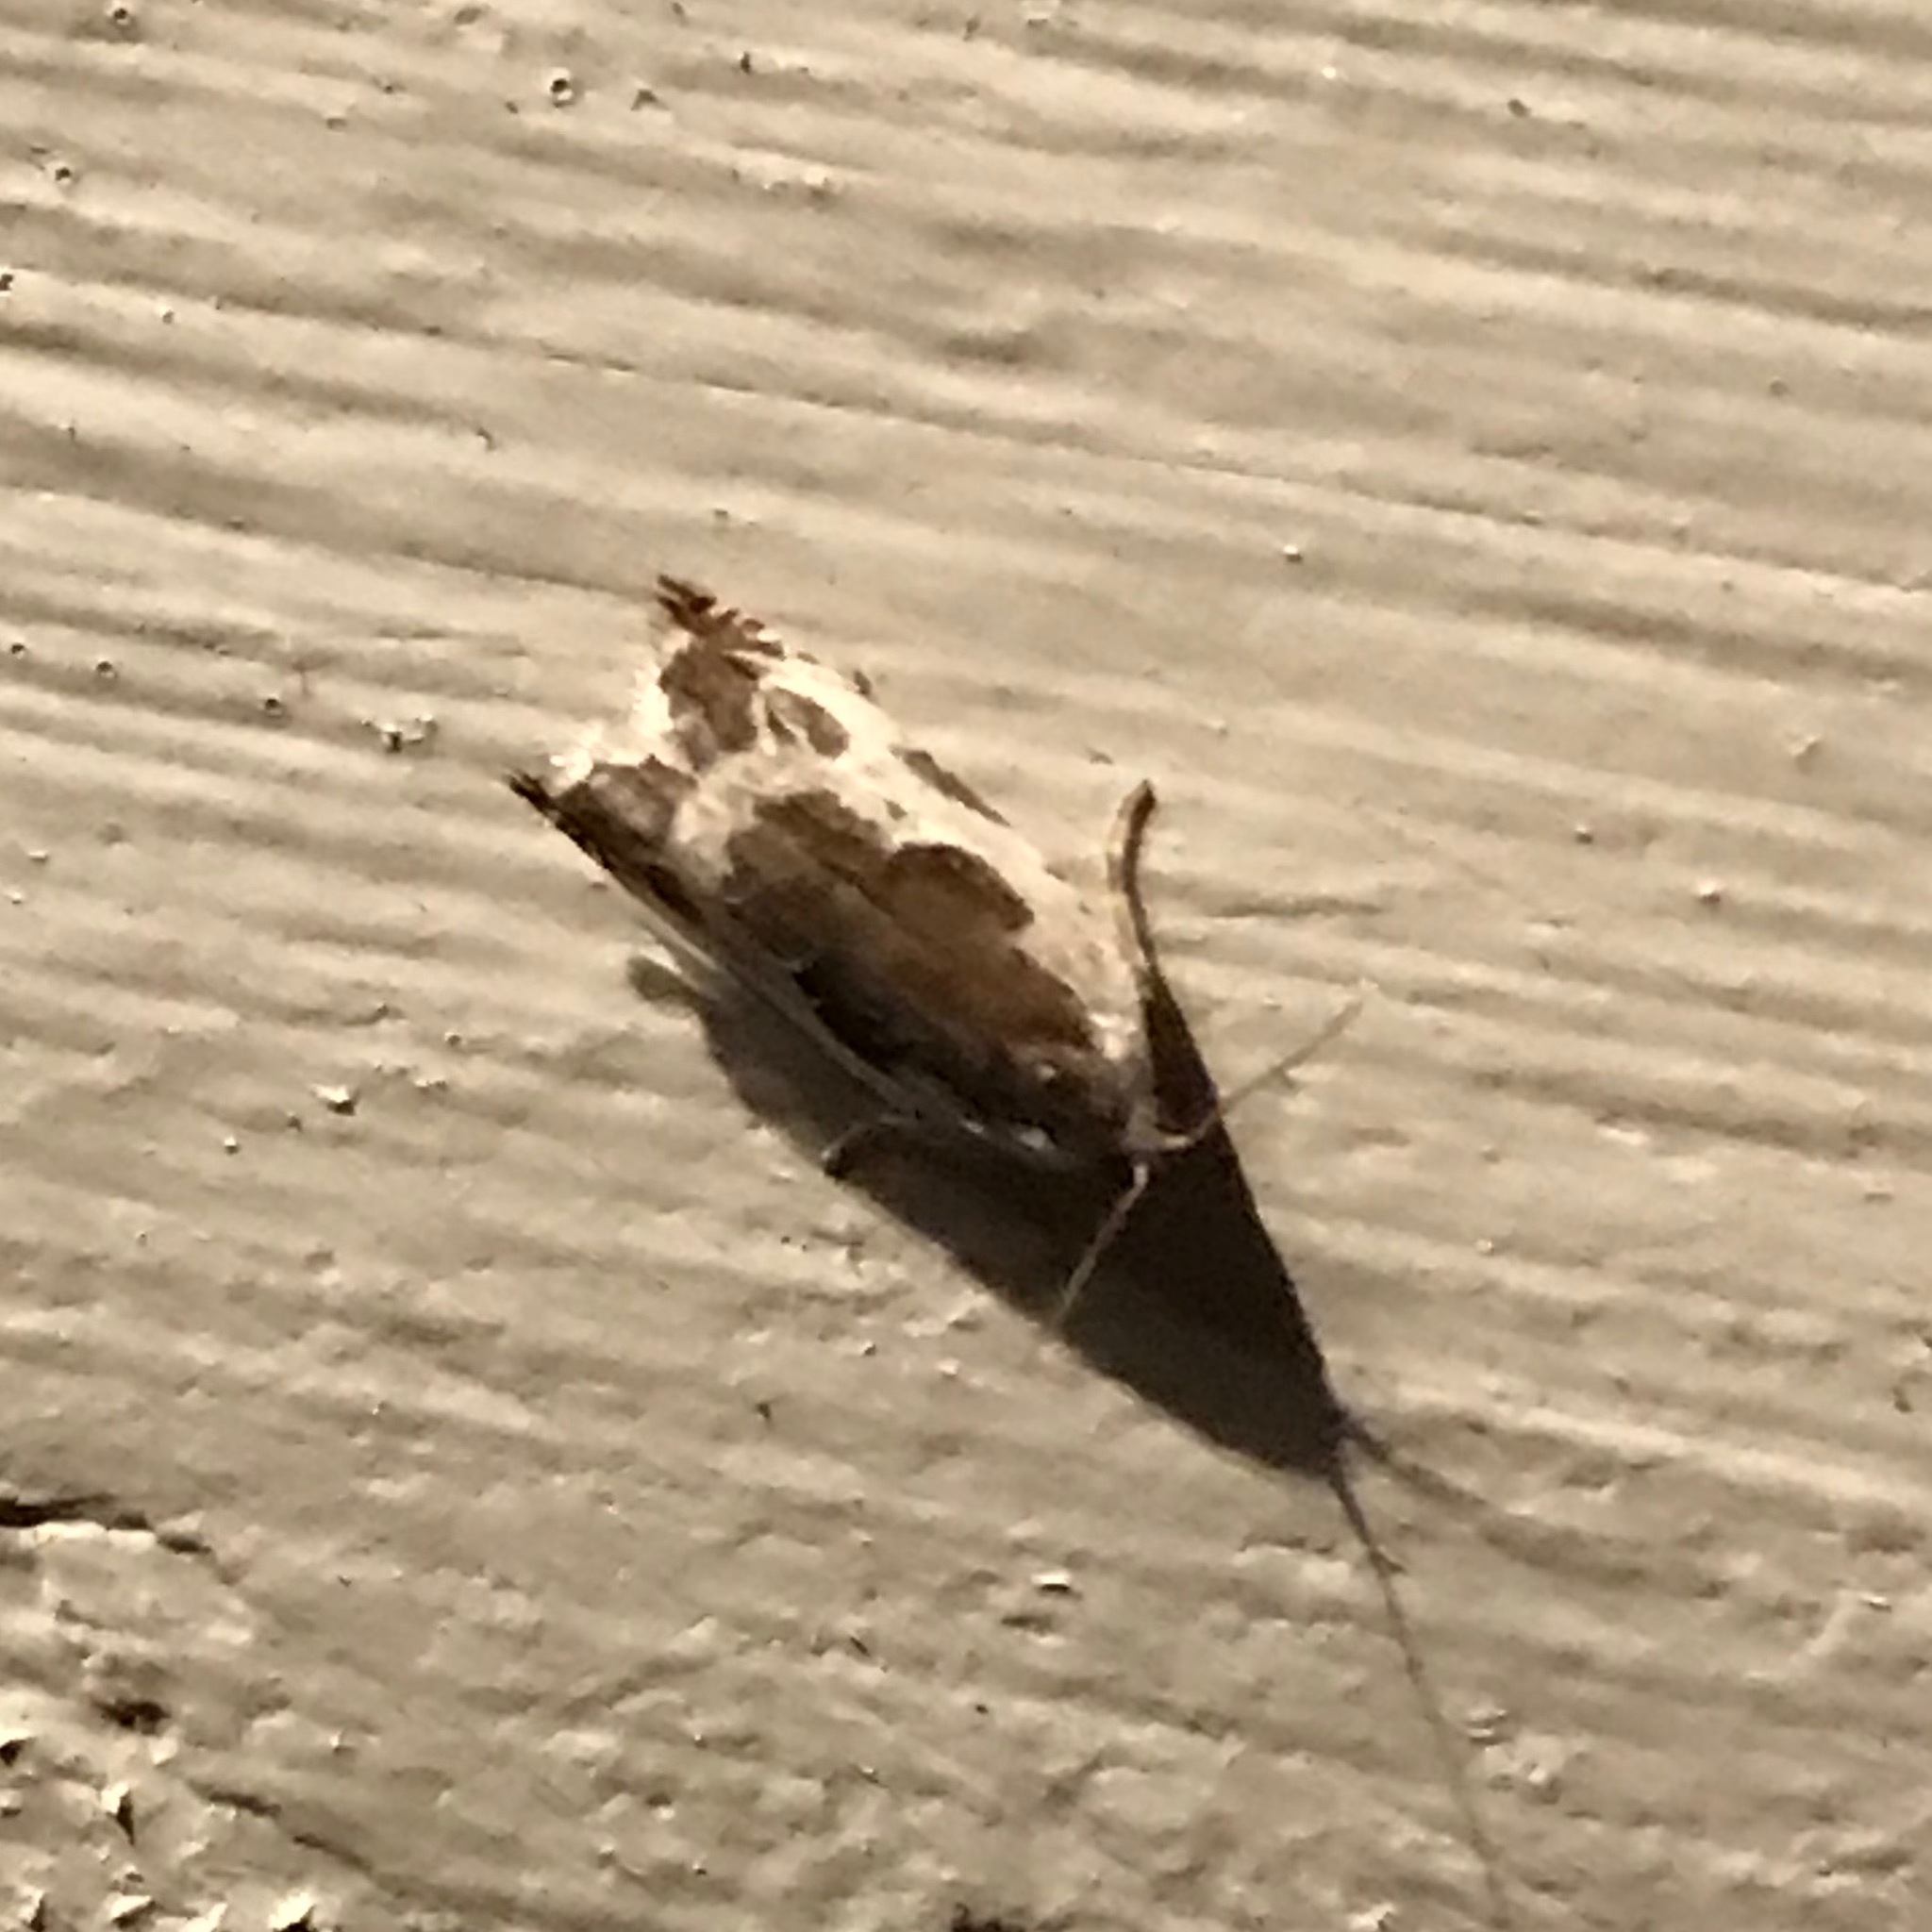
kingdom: Animalia
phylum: Arthropoda
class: Insecta
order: Lepidoptera
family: Tortricidae
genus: Ancylis
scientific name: Ancylis nubeculana
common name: Little cloud ancylis moth
